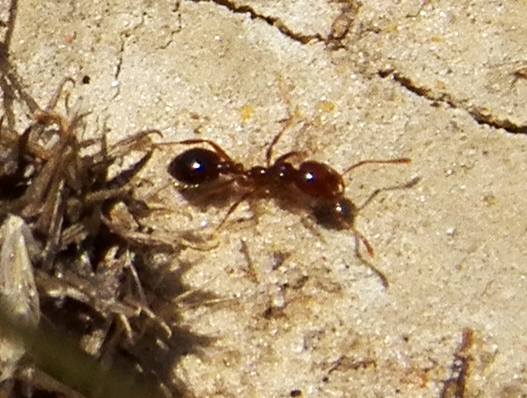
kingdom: Animalia
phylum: Arthropoda
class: Insecta
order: Hymenoptera
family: Formicidae
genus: Solenopsis
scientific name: Solenopsis invicta
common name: Red imported fire ant
